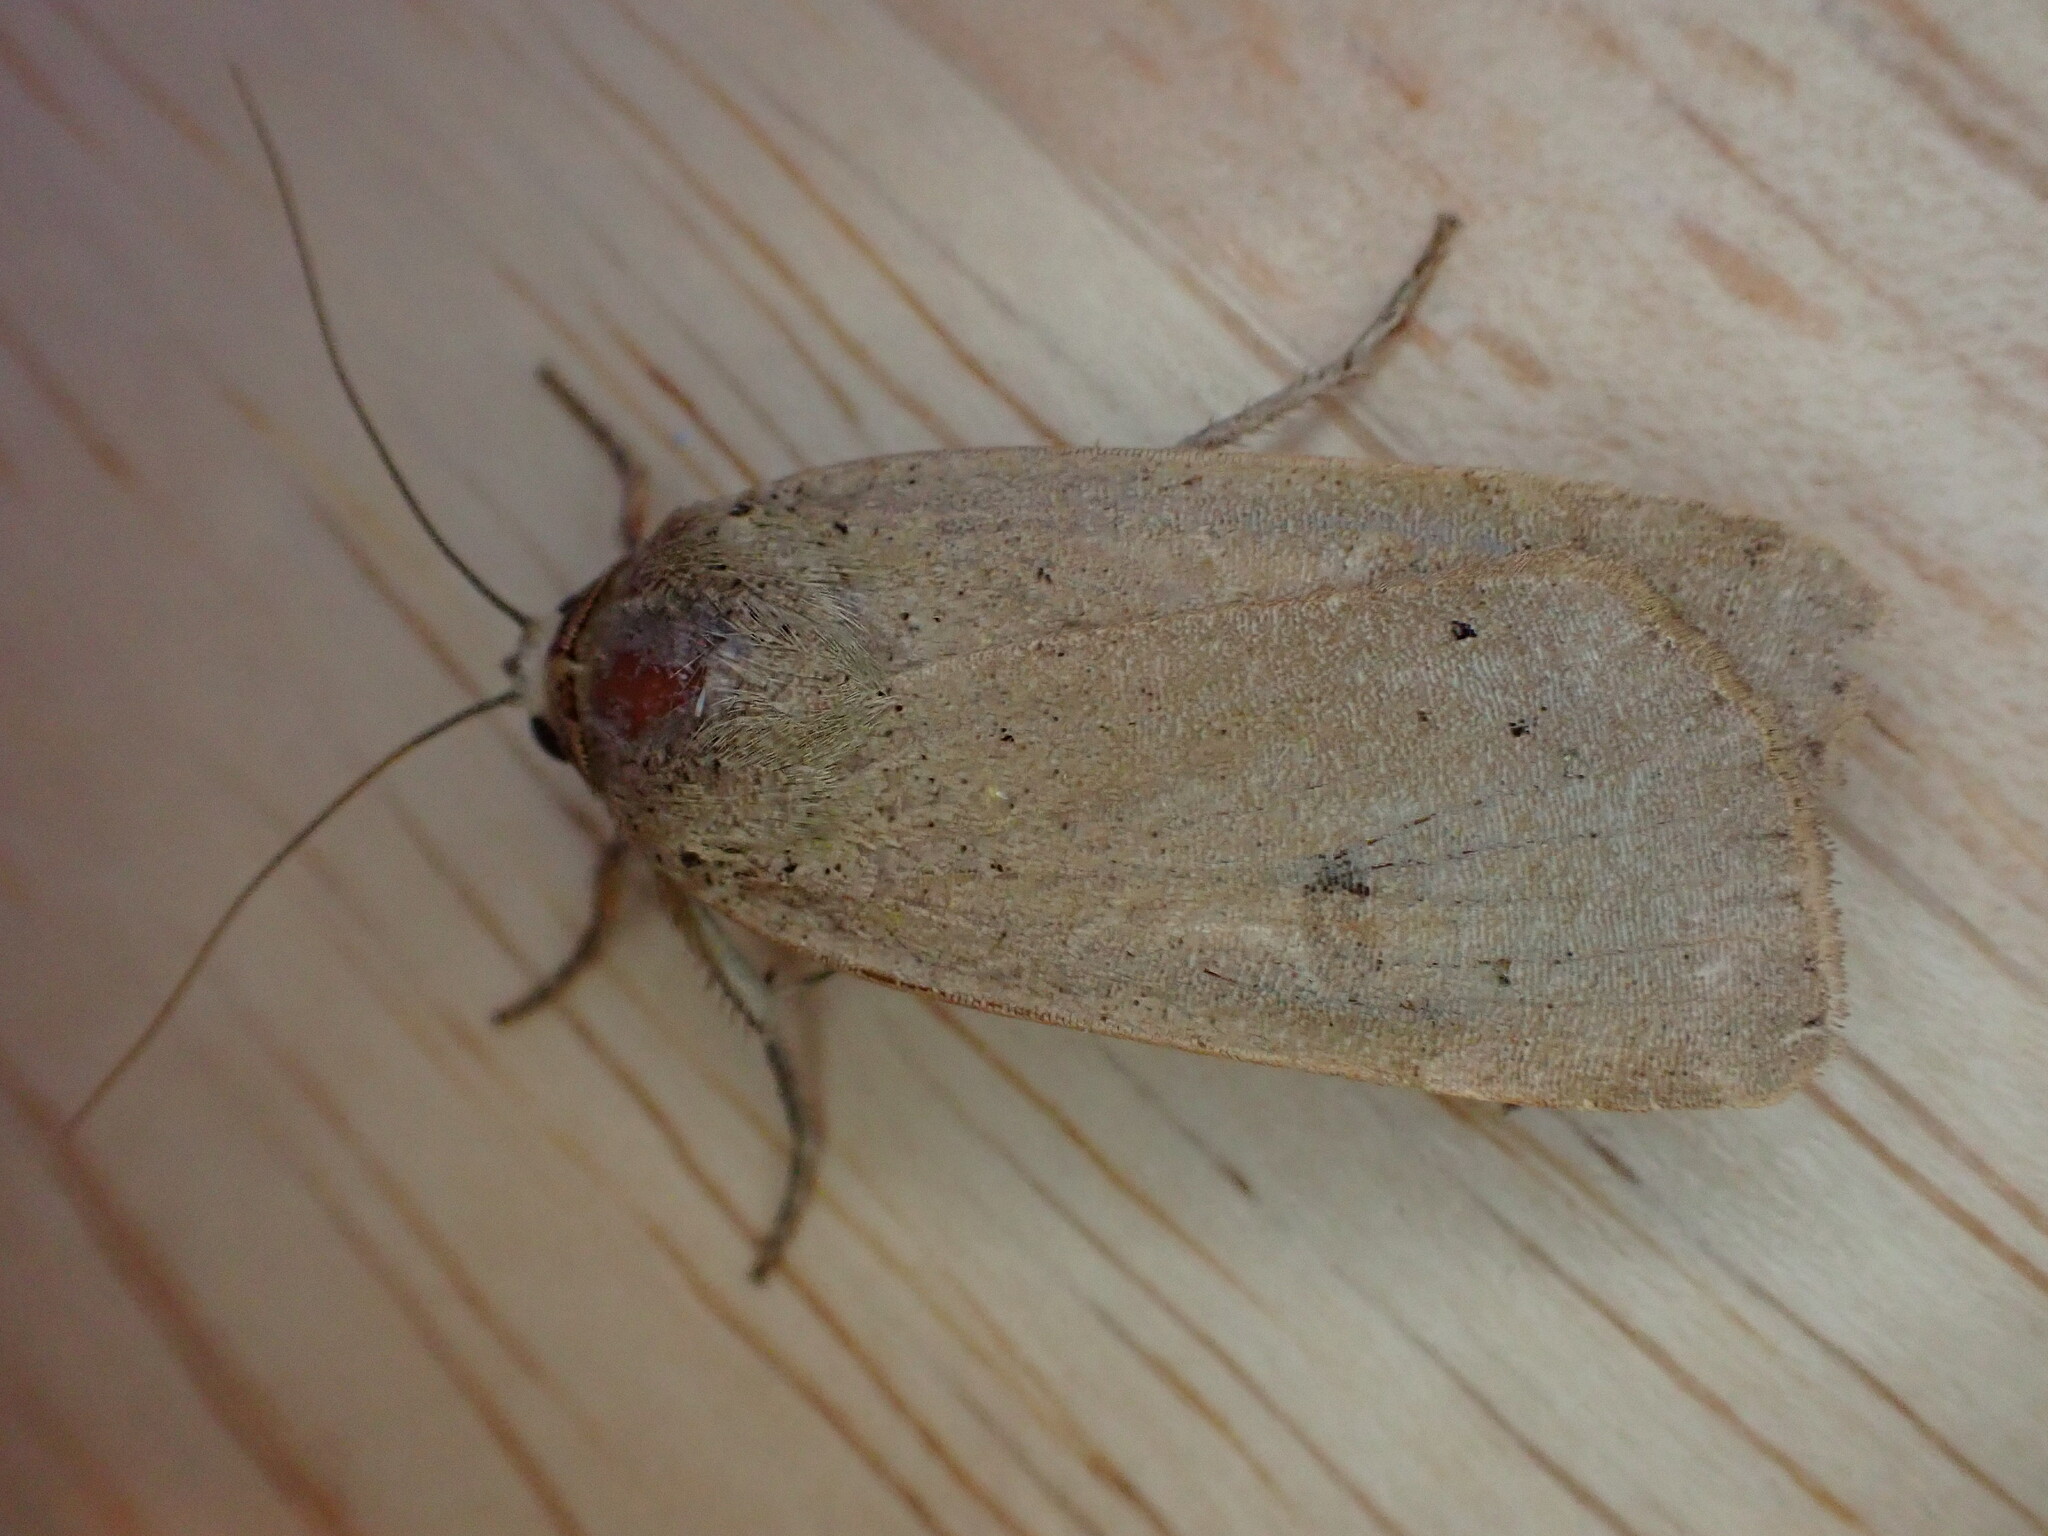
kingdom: Animalia
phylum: Arthropoda
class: Insecta
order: Lepidoptera
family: Noctuidae
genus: Noctua
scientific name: Noctua comes
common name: Lesser yellow underwing
